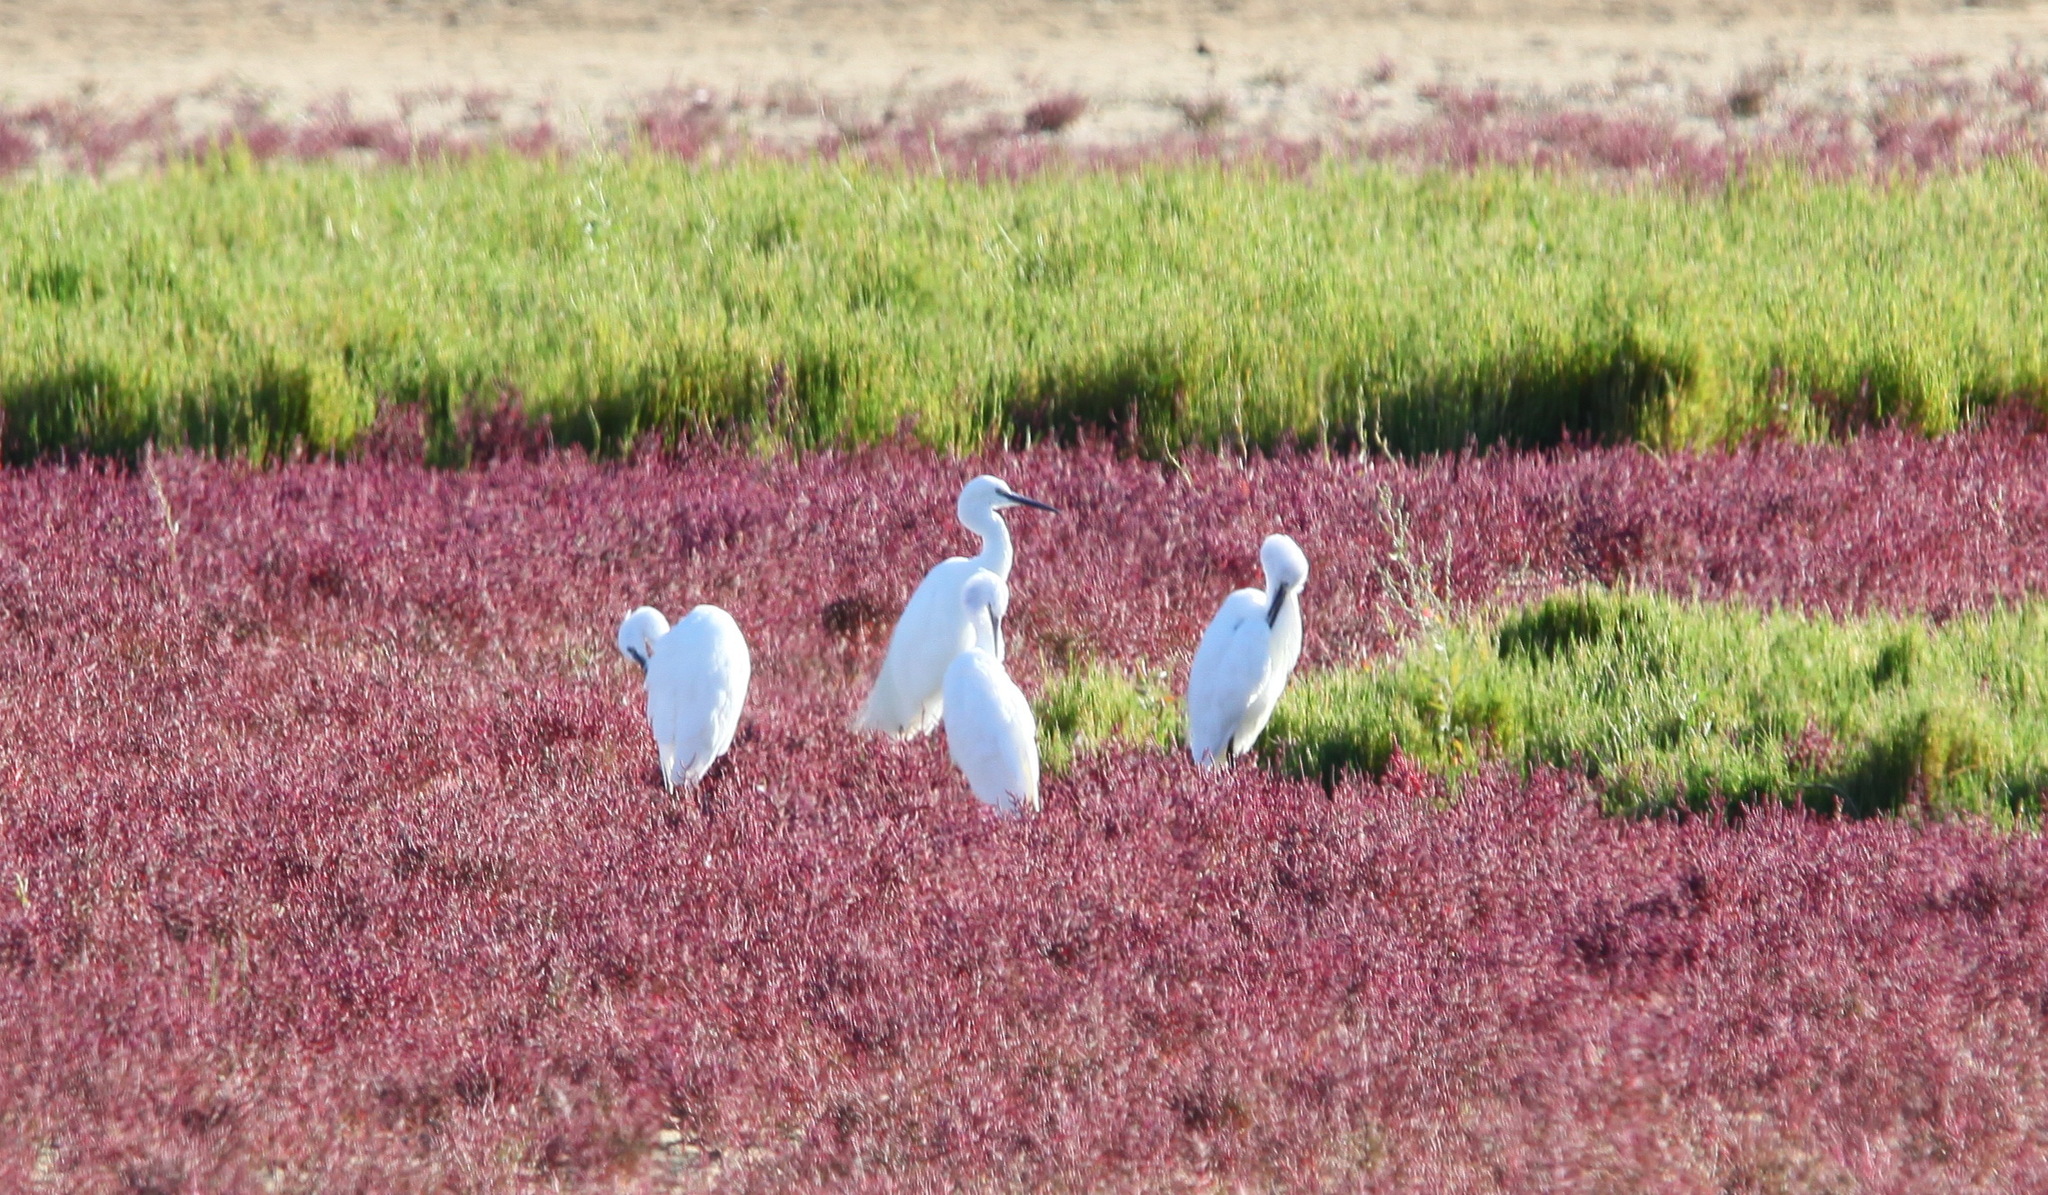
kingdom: Animalia
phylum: Chordata
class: Aves
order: Pelecaniformes
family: Ardeidae
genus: Egretta
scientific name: Egretta garzetta
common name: Little egret
